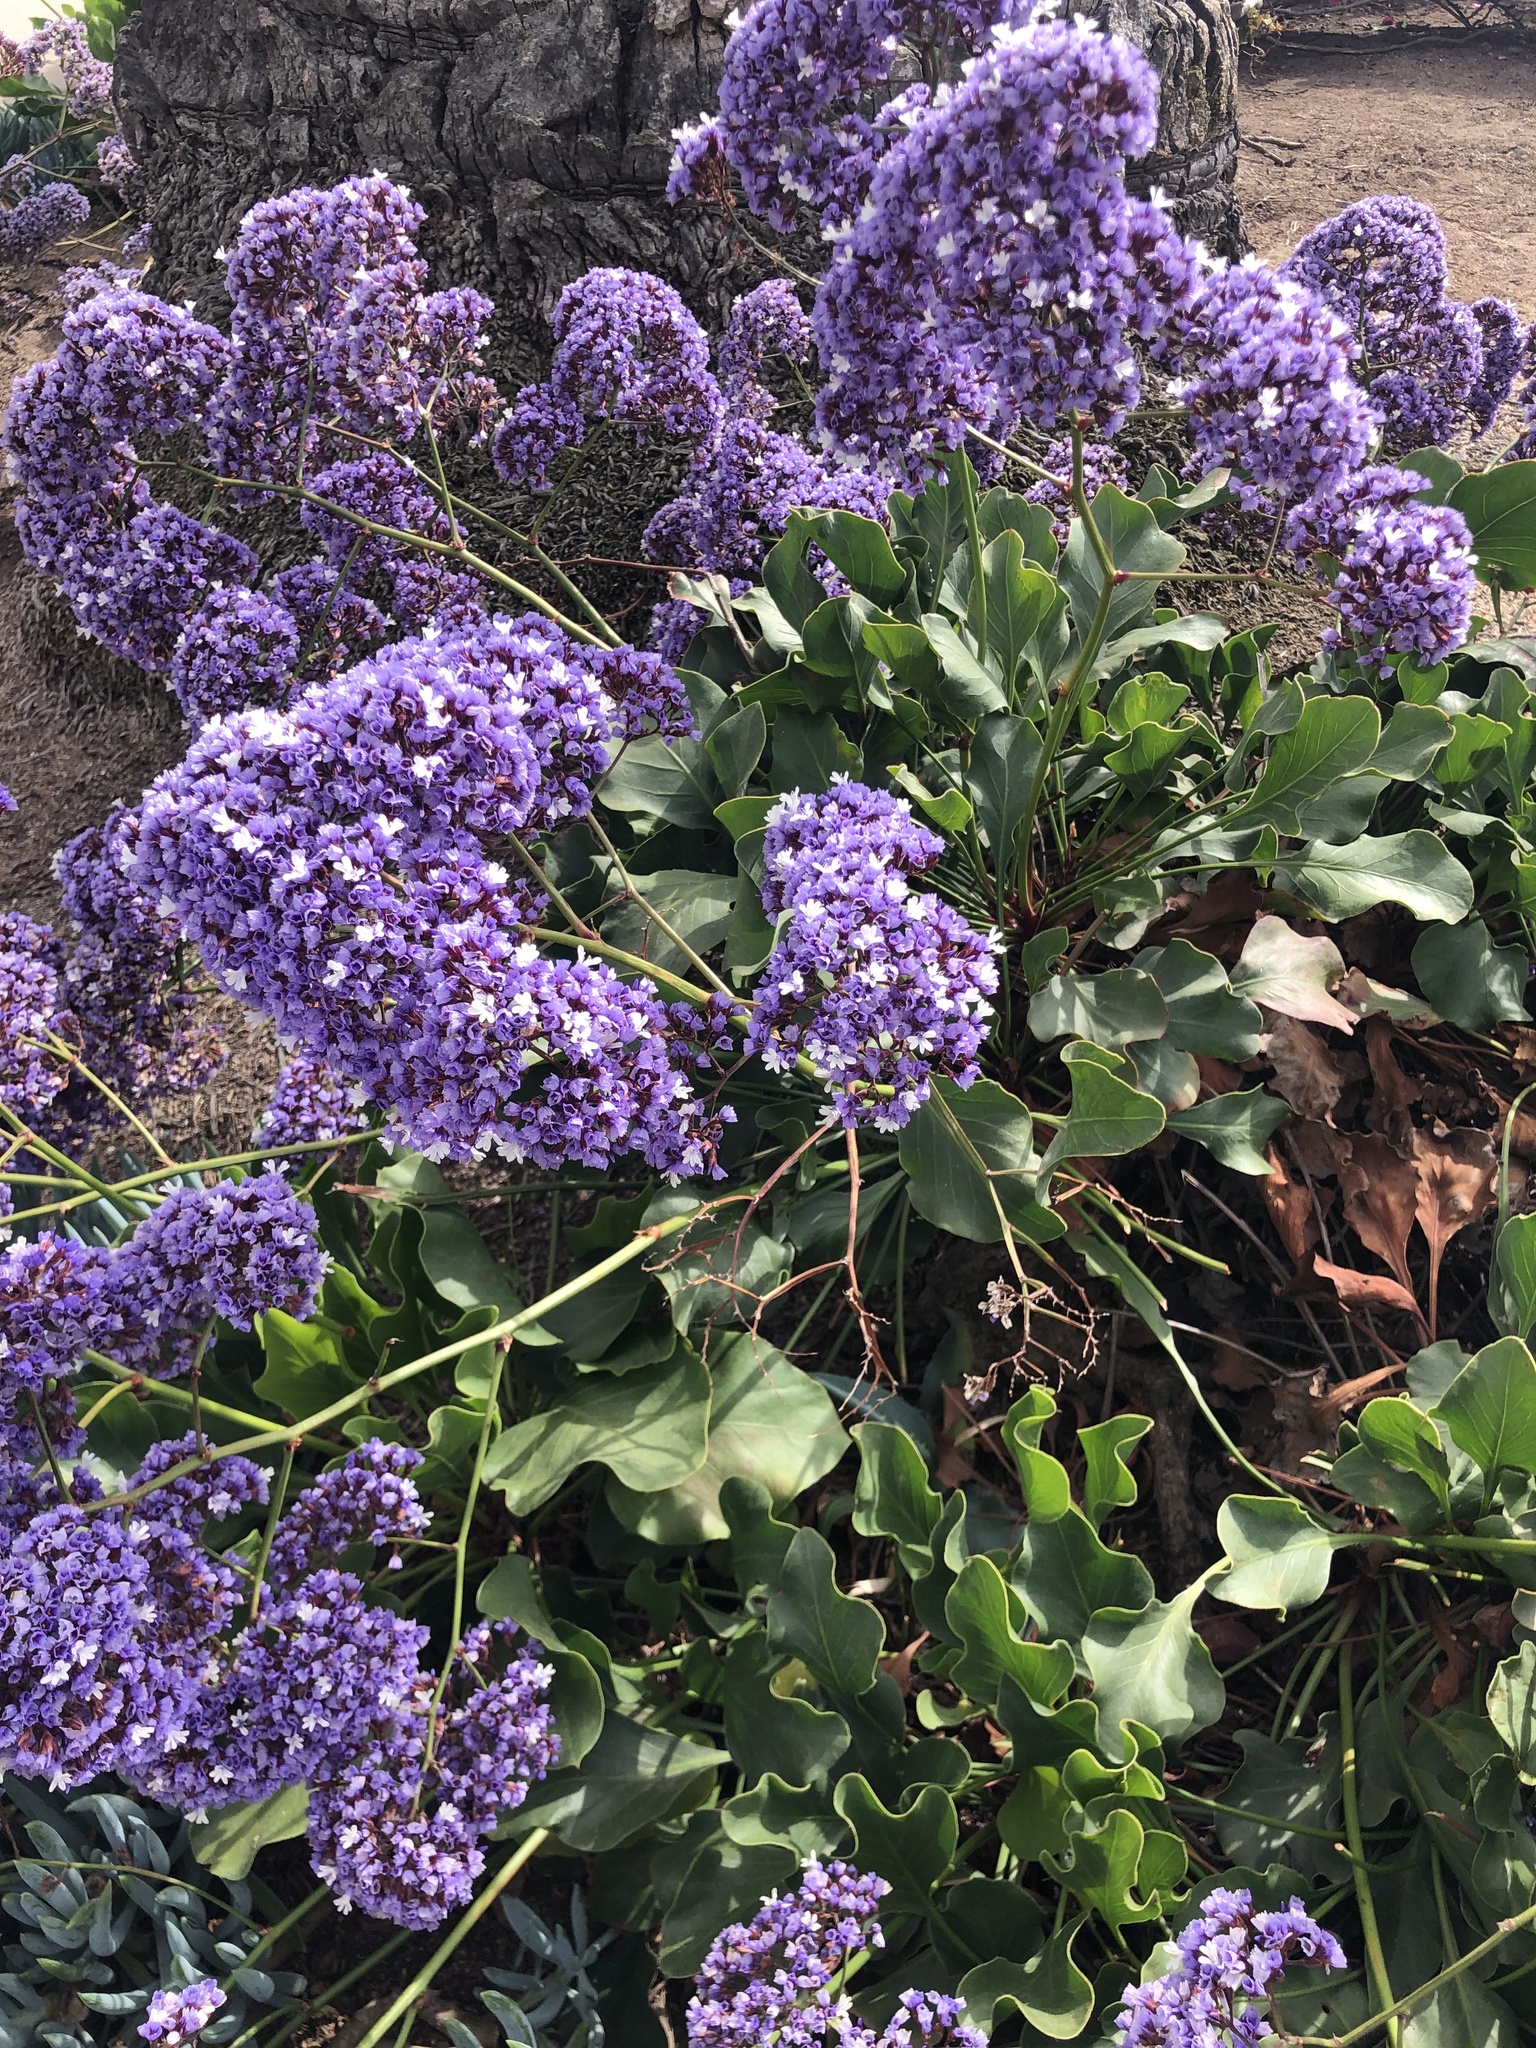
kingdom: Plantae
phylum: Tracheophyta
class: Magnoliopsida
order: Caryophyllales
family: Plumbaginaceae
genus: Limonium
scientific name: Limonium perezii
